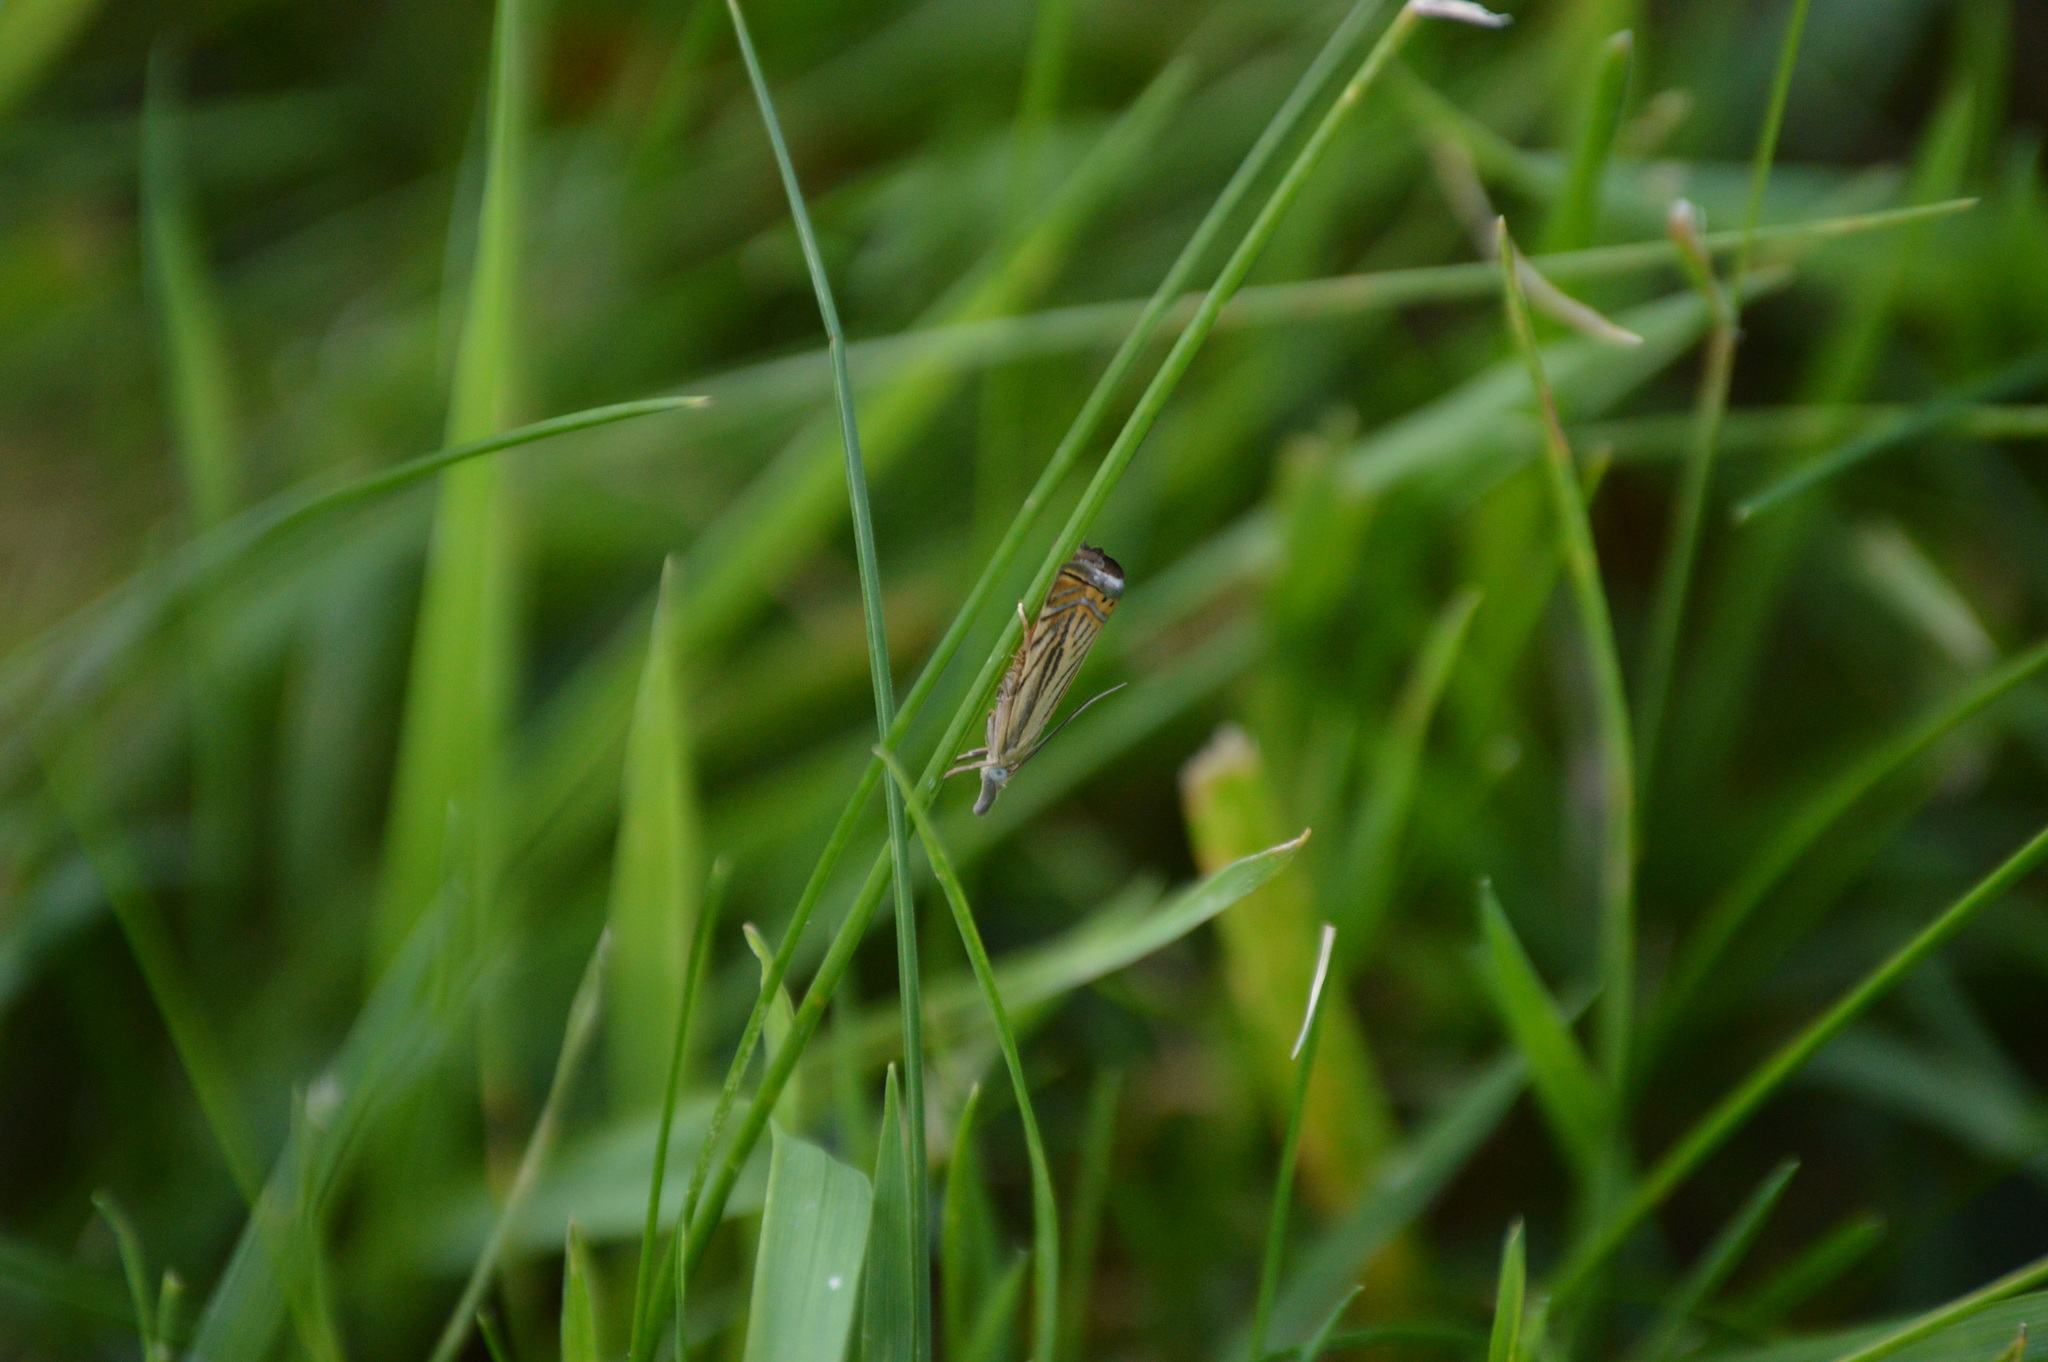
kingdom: Animalia
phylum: Arthropoda
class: Insecta
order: Lepidoptera
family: Crambidae
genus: Chrysoteuchia
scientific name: Chrysoteuchia topiarius
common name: Topiary grass-veneer
